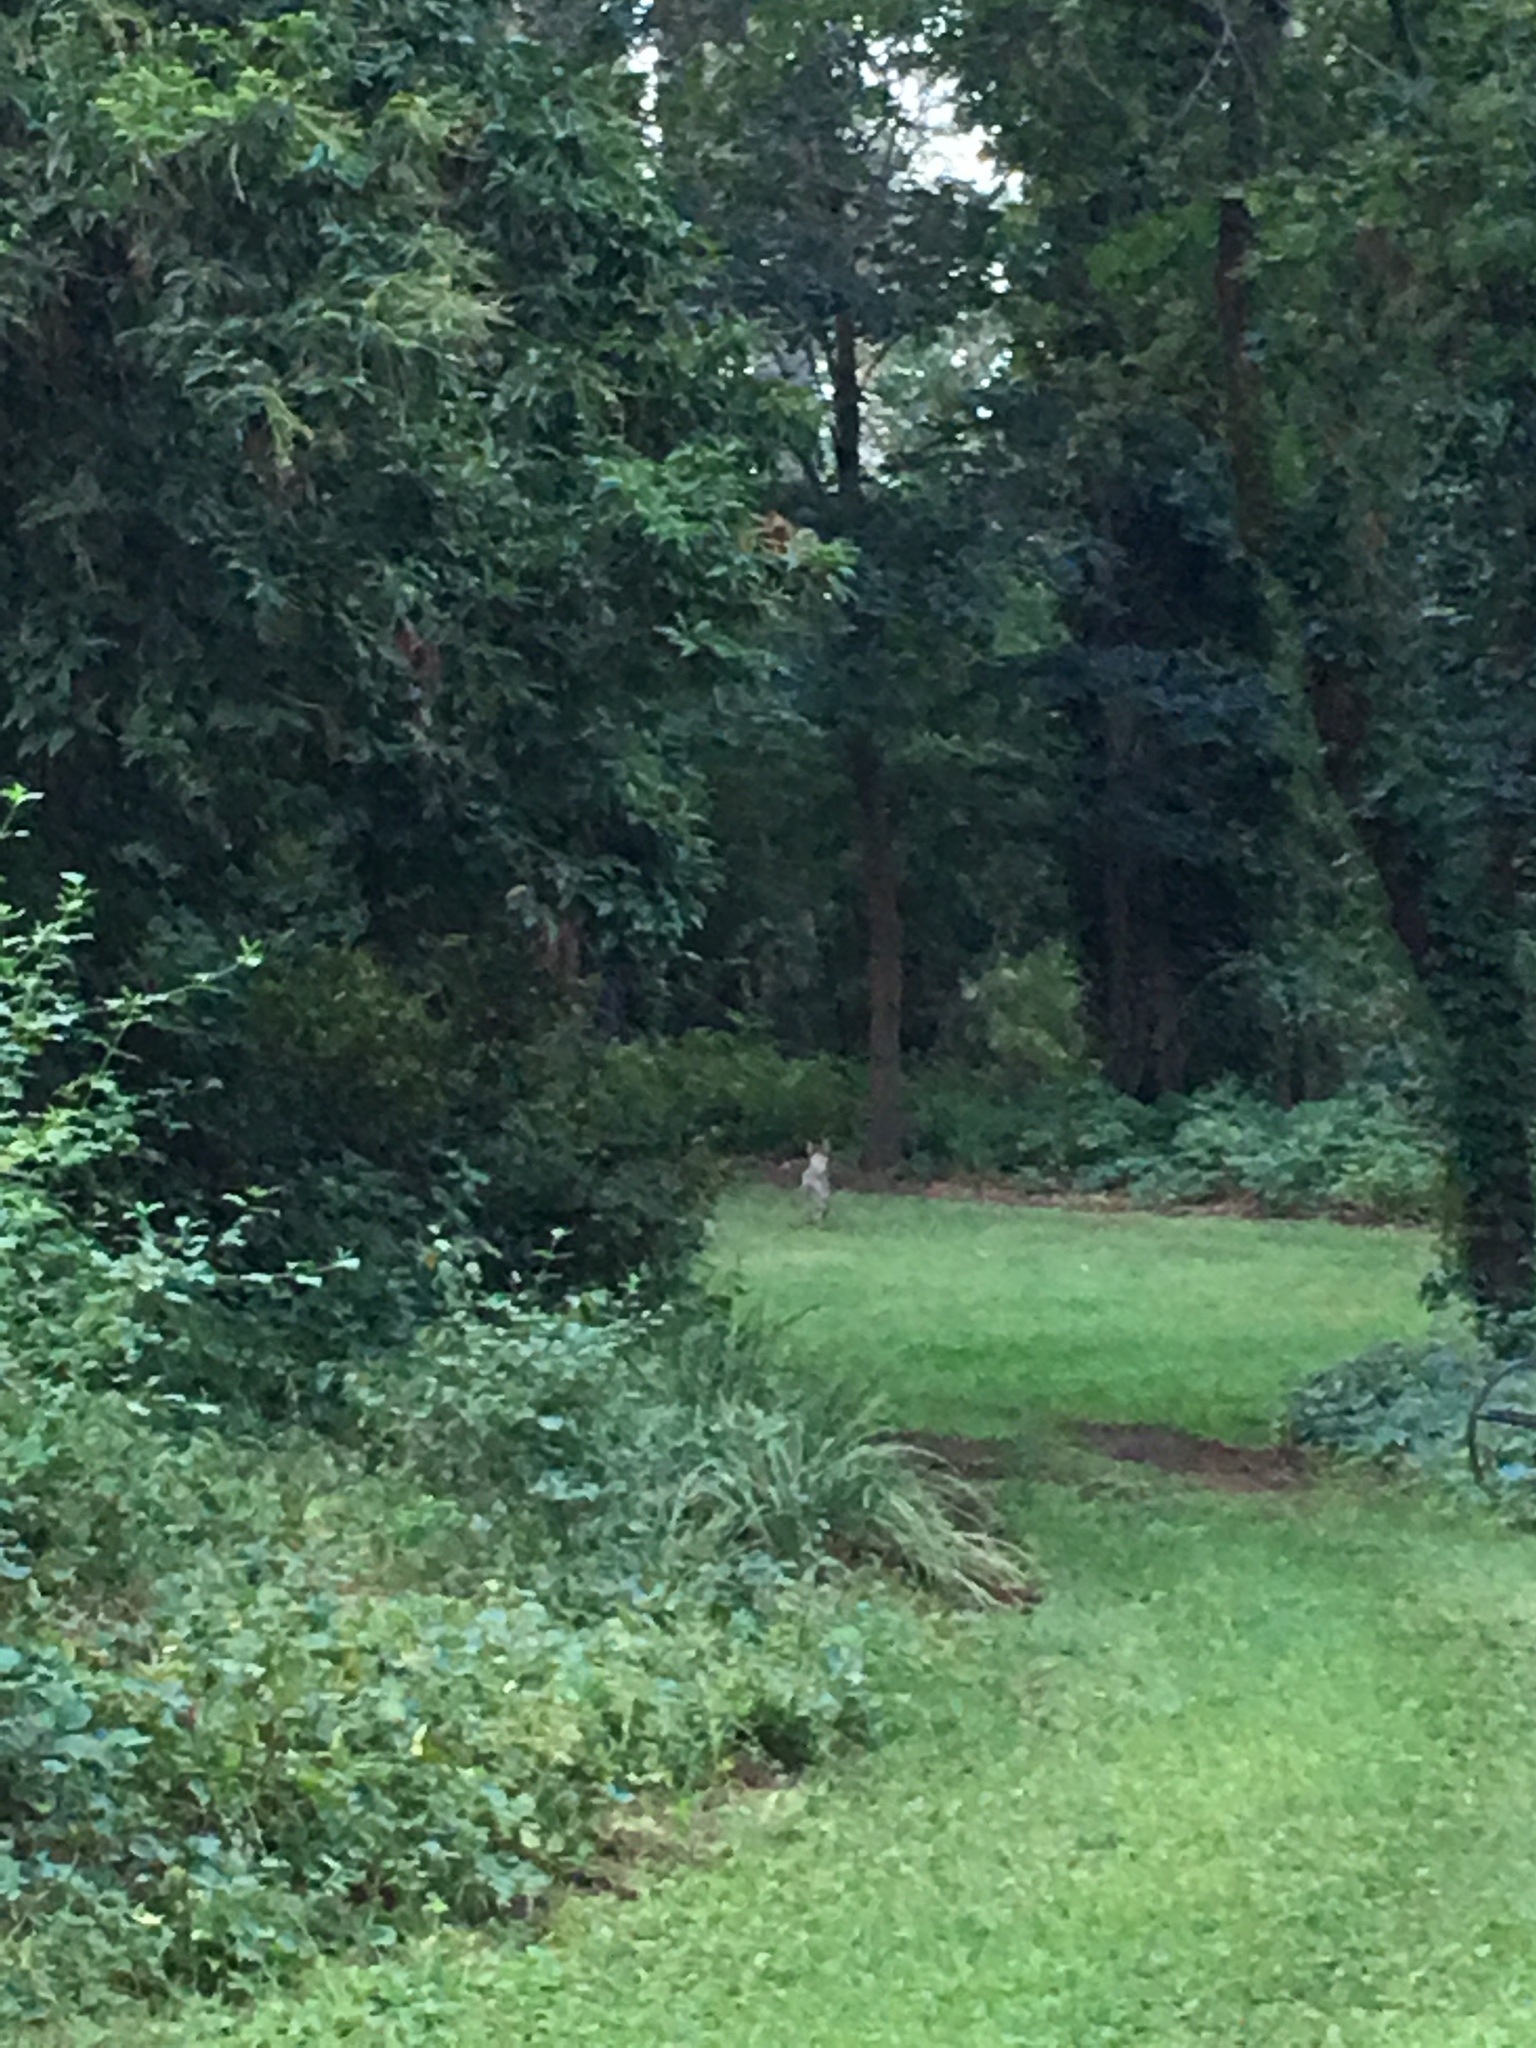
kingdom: Animalia
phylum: Chordata
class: Mammalia
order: Carnivora
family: Canidae
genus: Canis
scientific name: Canis latrans
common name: Coyote
